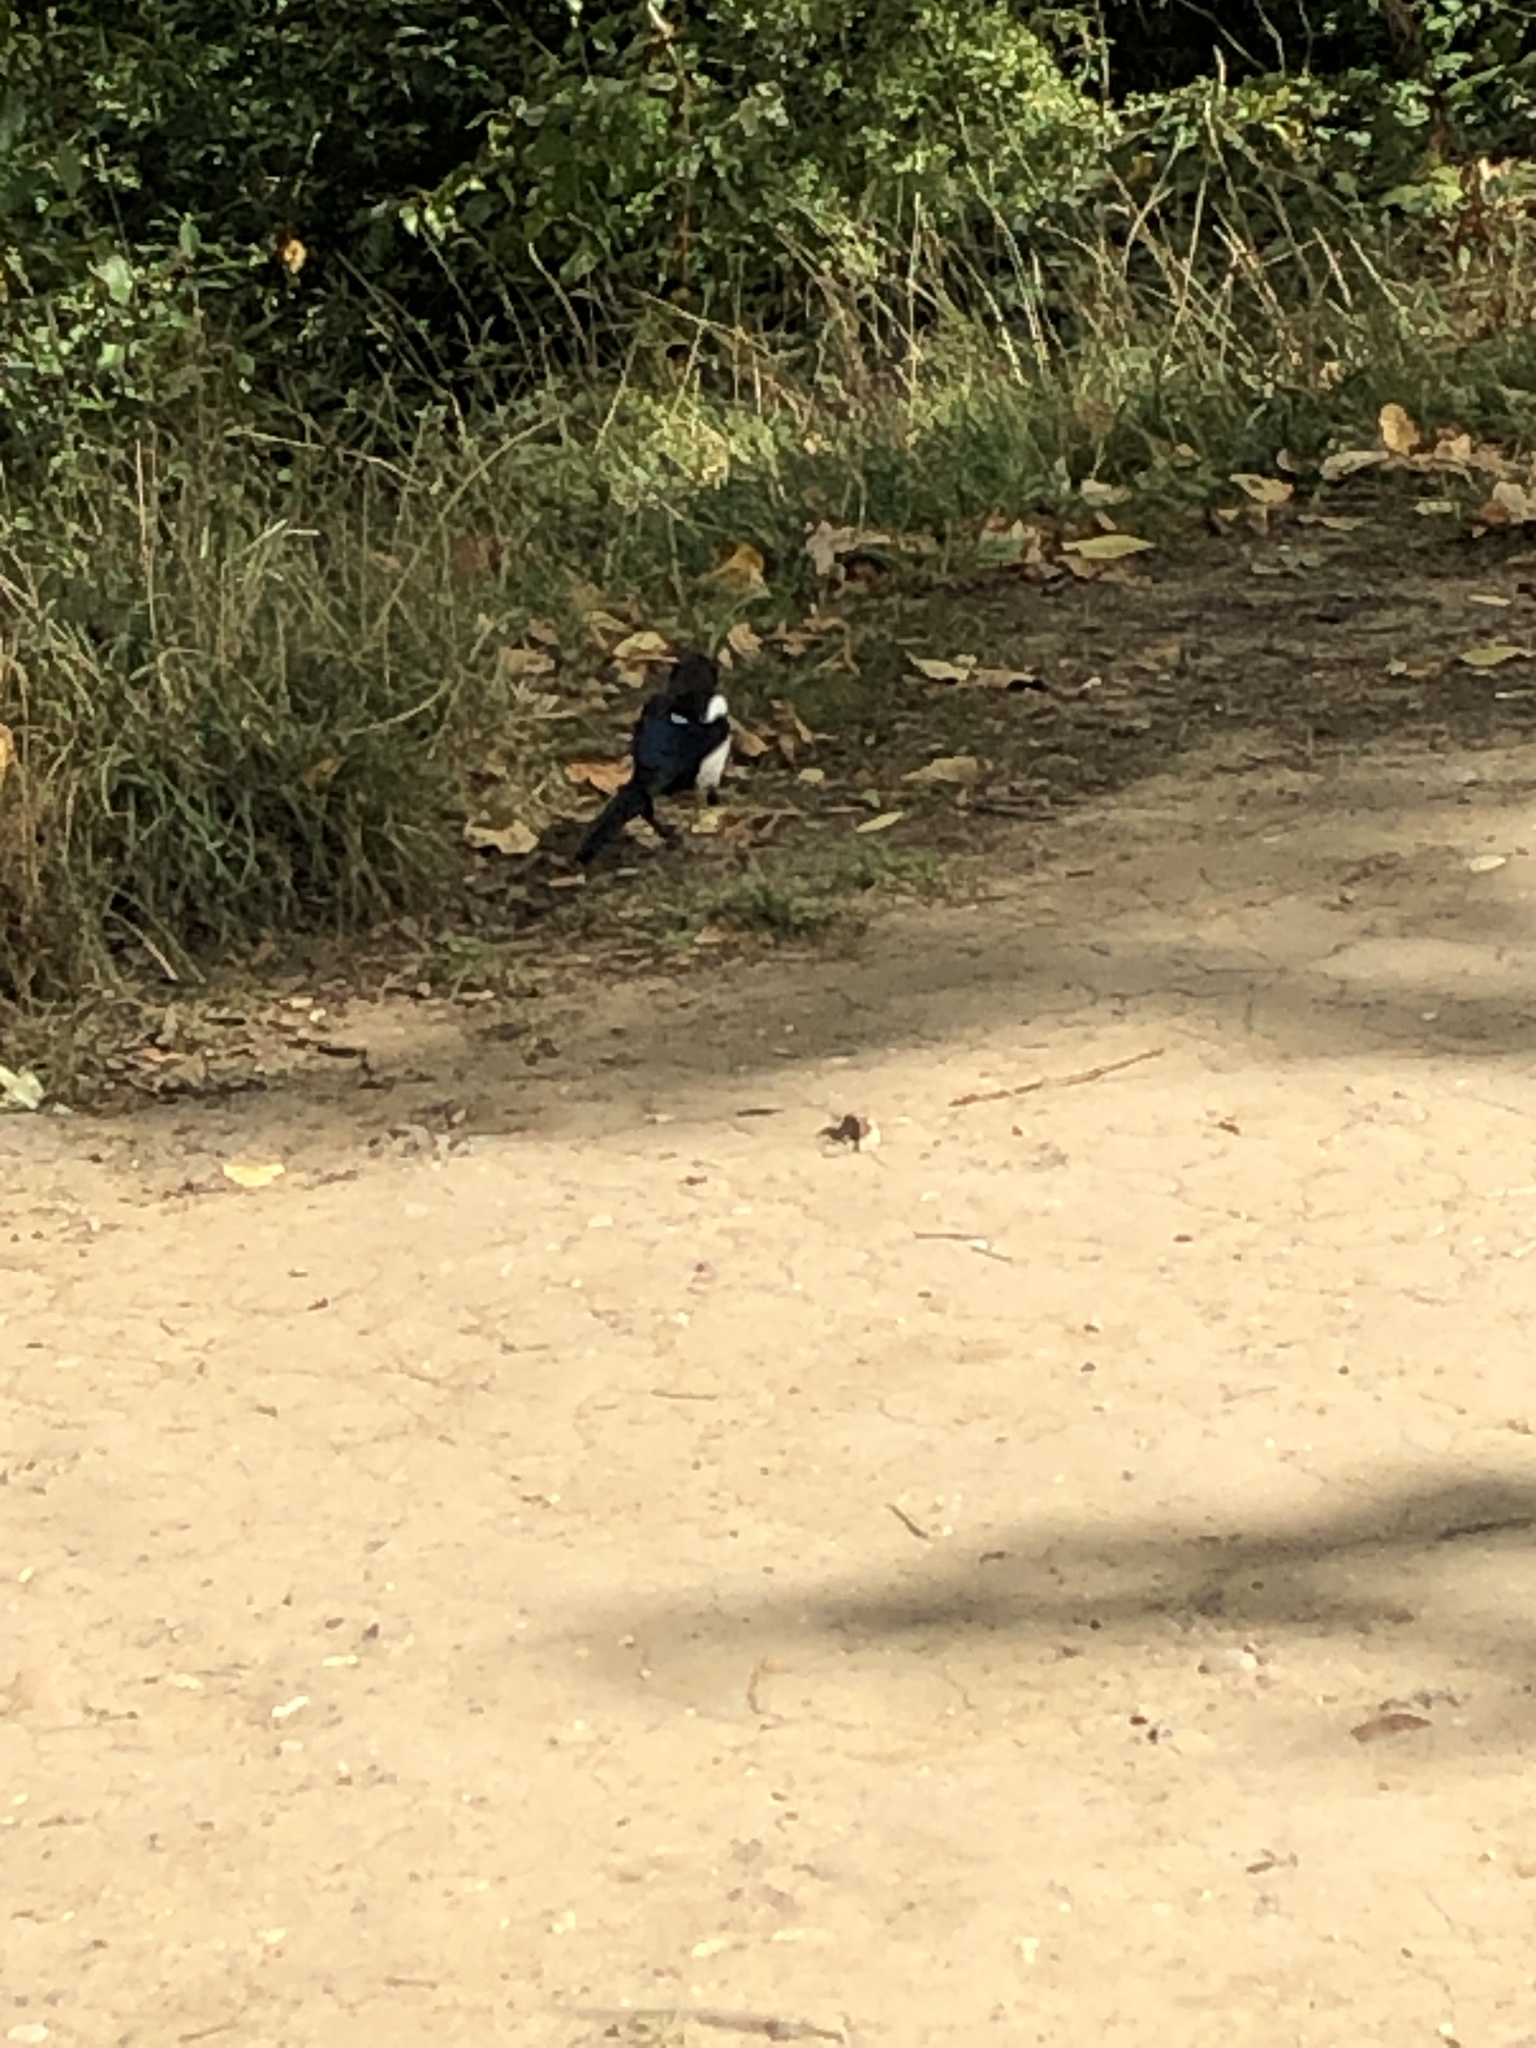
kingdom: Animalia
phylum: Chordata
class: Aves
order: Passeriformes
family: Corvidae
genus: Pica
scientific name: Pica pica
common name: Eurasian magpie
